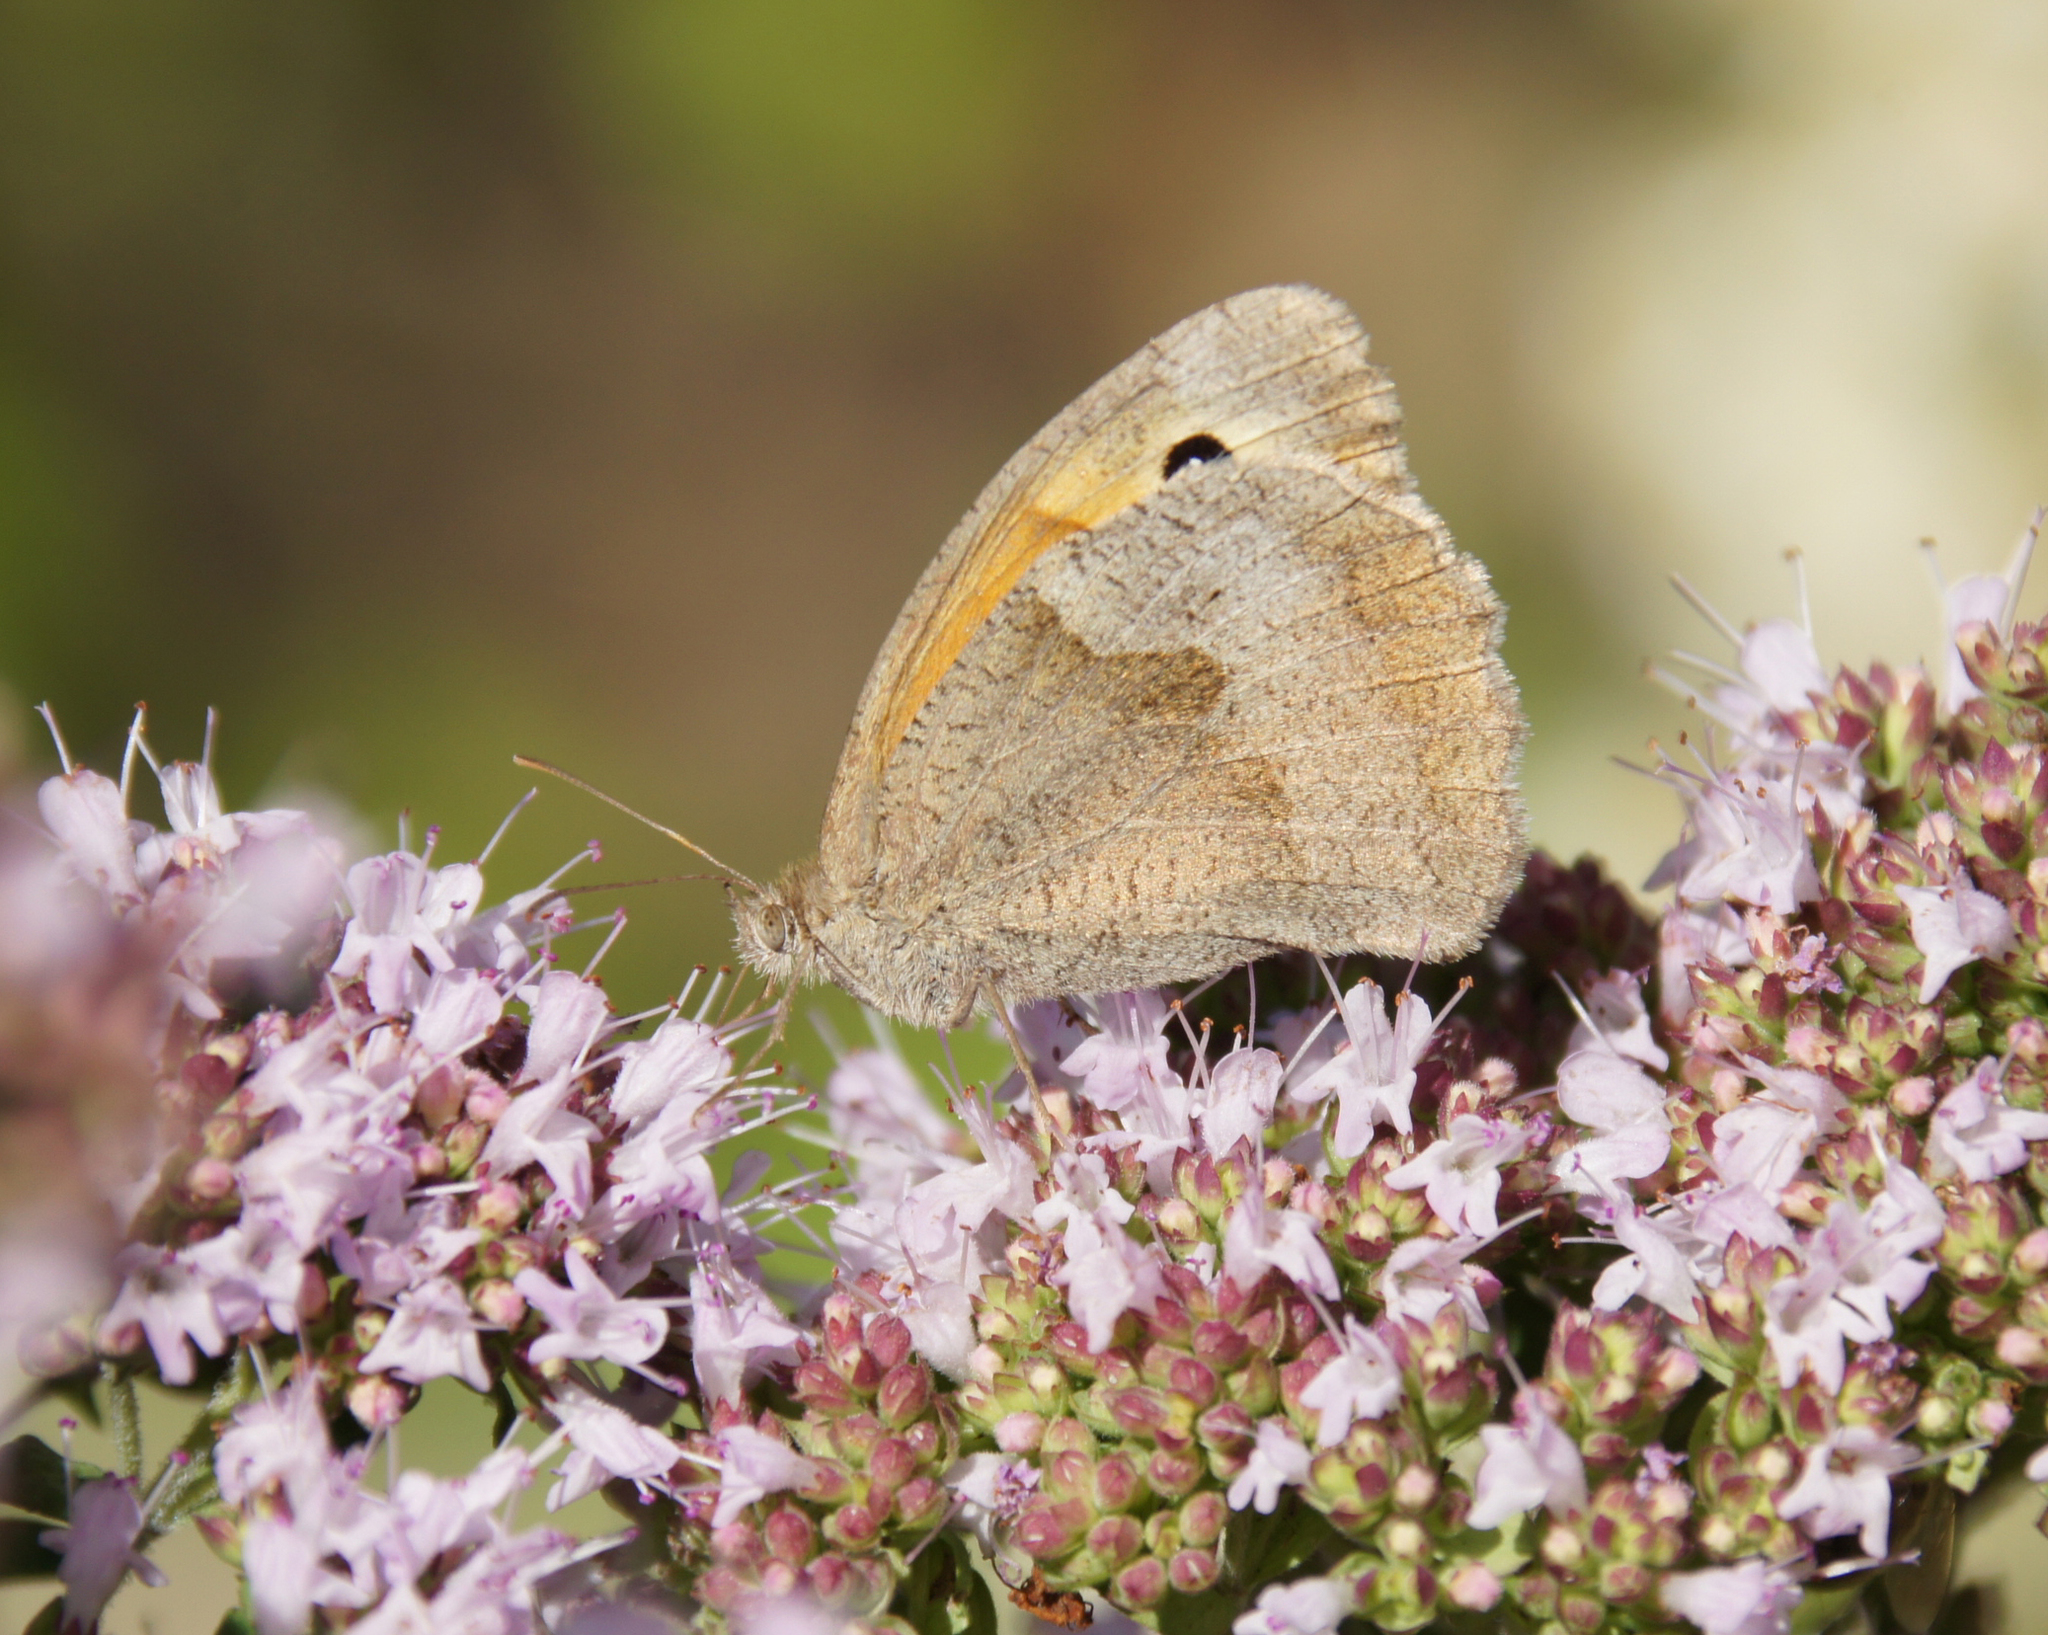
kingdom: Animalia
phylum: Arthropoda
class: Insecta
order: Lepidoptera
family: Nymphalidae
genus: Maniola
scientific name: Maniola jurtina
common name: Meadow brown
